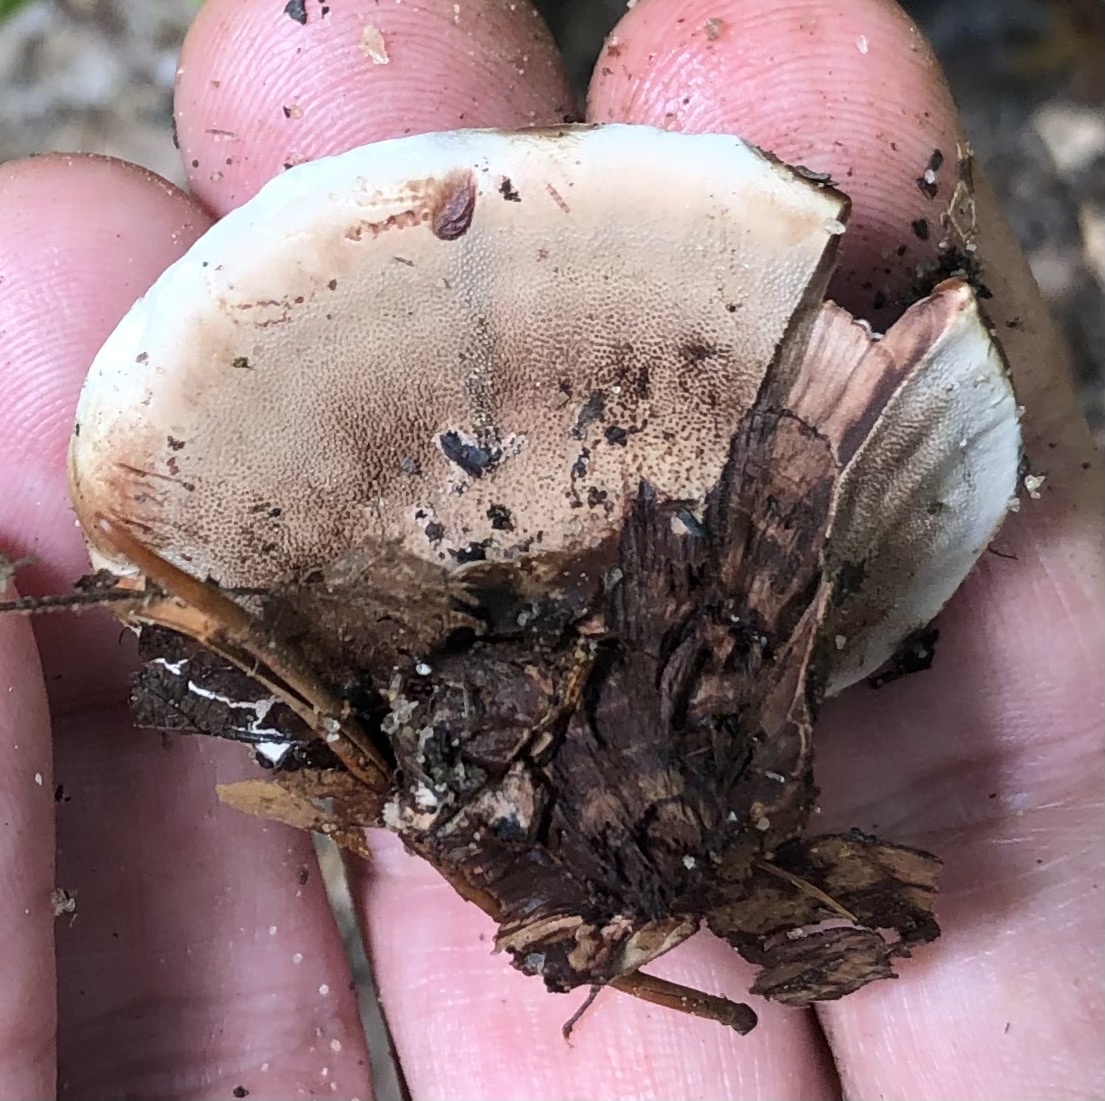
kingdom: Fungi
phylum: Basidiomycota
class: Agaricomycetes
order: Thelephorales
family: Bankeraceae
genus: Hydnellum
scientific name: Hydnellum concrescens
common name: Zoned tooth
